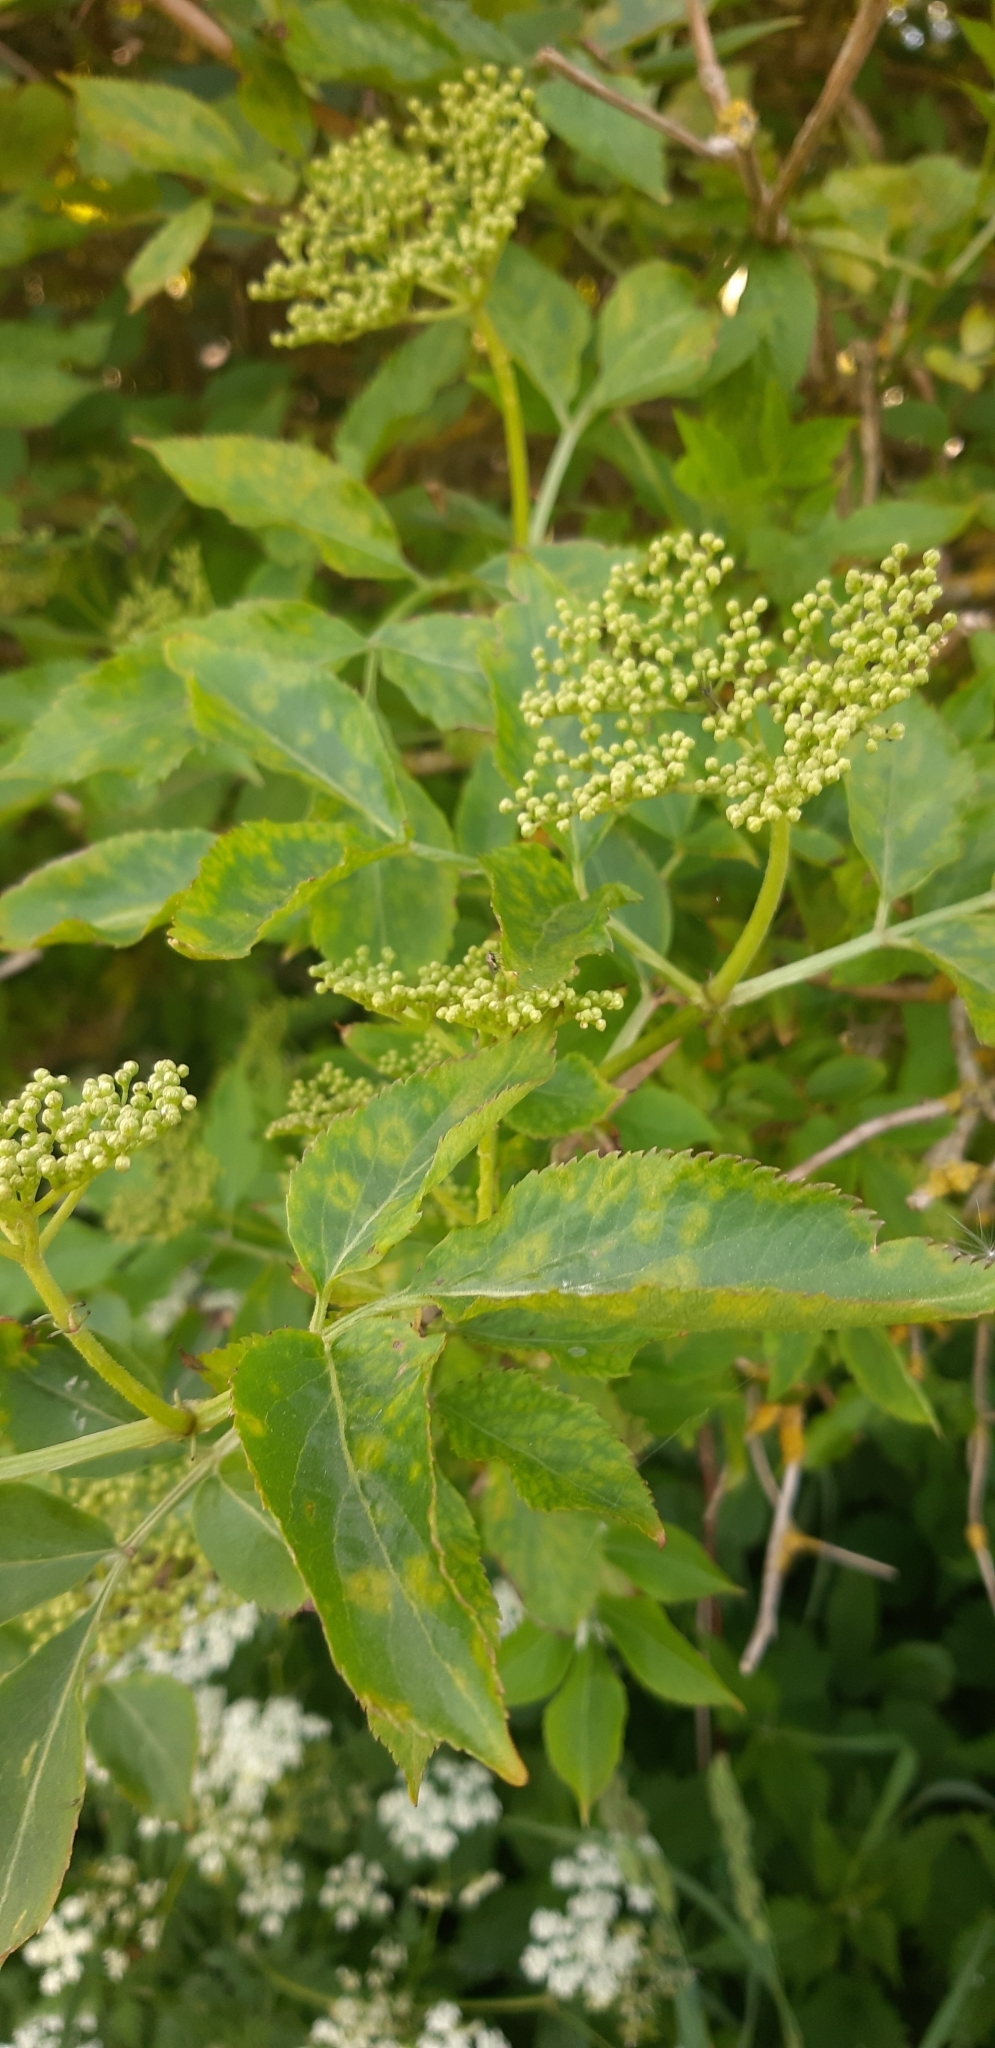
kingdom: Plantae
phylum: Tracheophyta
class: Magnoliopsida
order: Dipsacales
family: Viburnaceae
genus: Sambucus
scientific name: Sambucus nigra
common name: Elder
